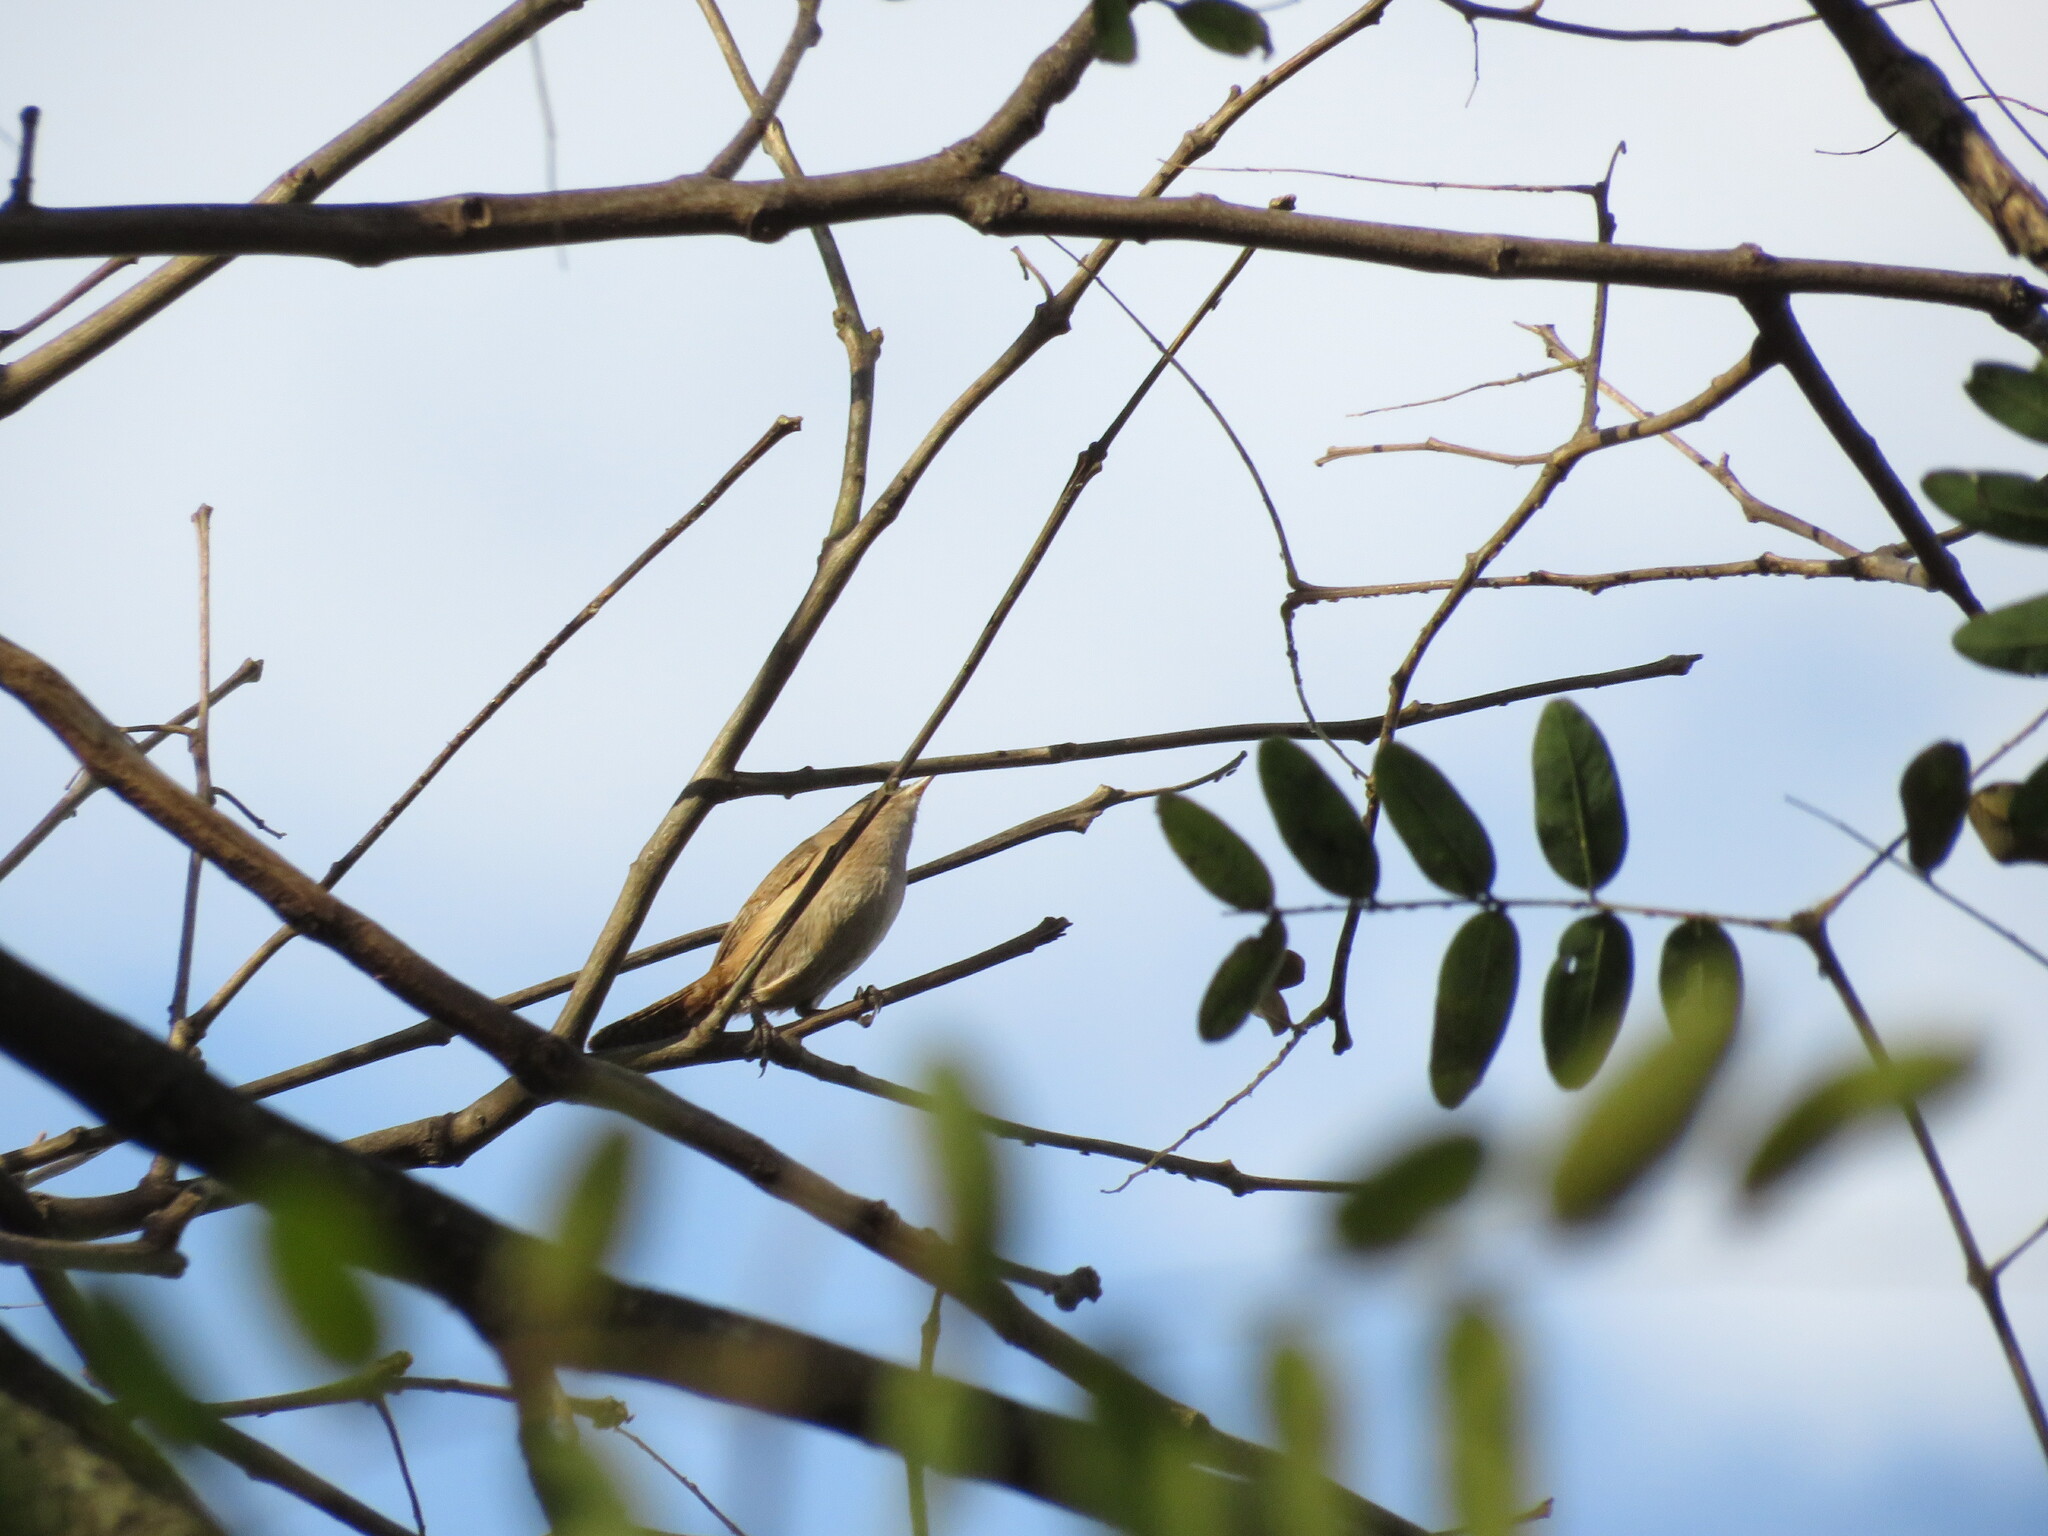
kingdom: Animalia
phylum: Chordata
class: Aves
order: Passeriformes
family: Troglodytidae
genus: Troglodytes
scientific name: Troglodytes aedon
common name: House wren
